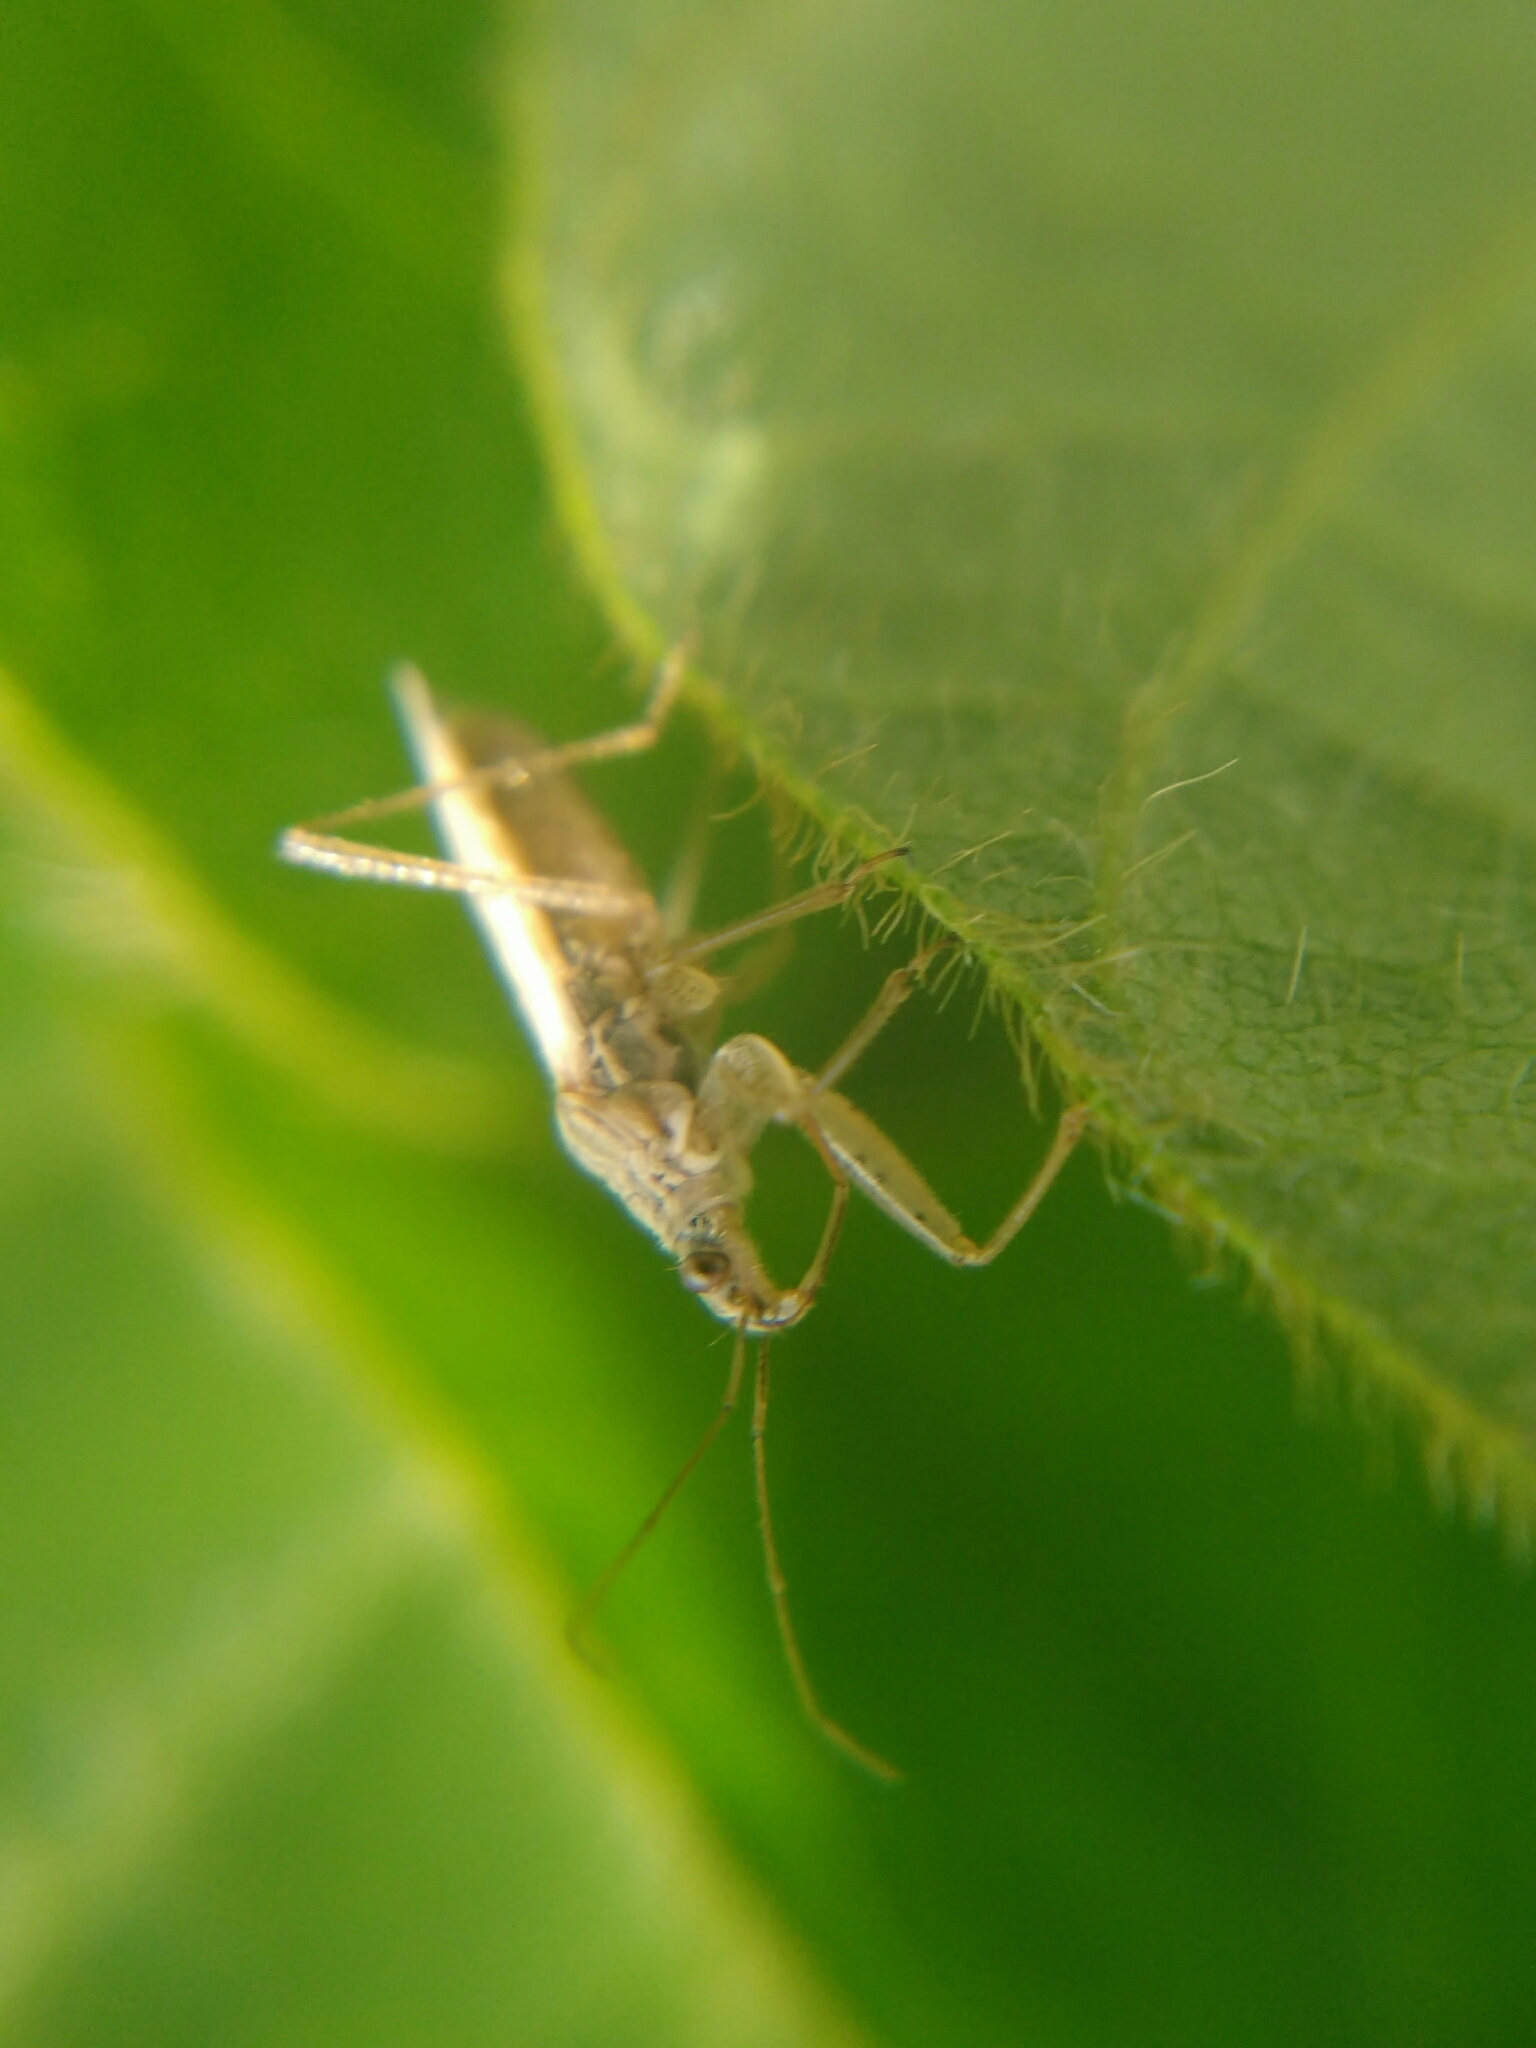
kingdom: Animalia
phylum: Arthropoda
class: Insecta
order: Hemiptera
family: Nabidae
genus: Nabis
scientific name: Nabis
